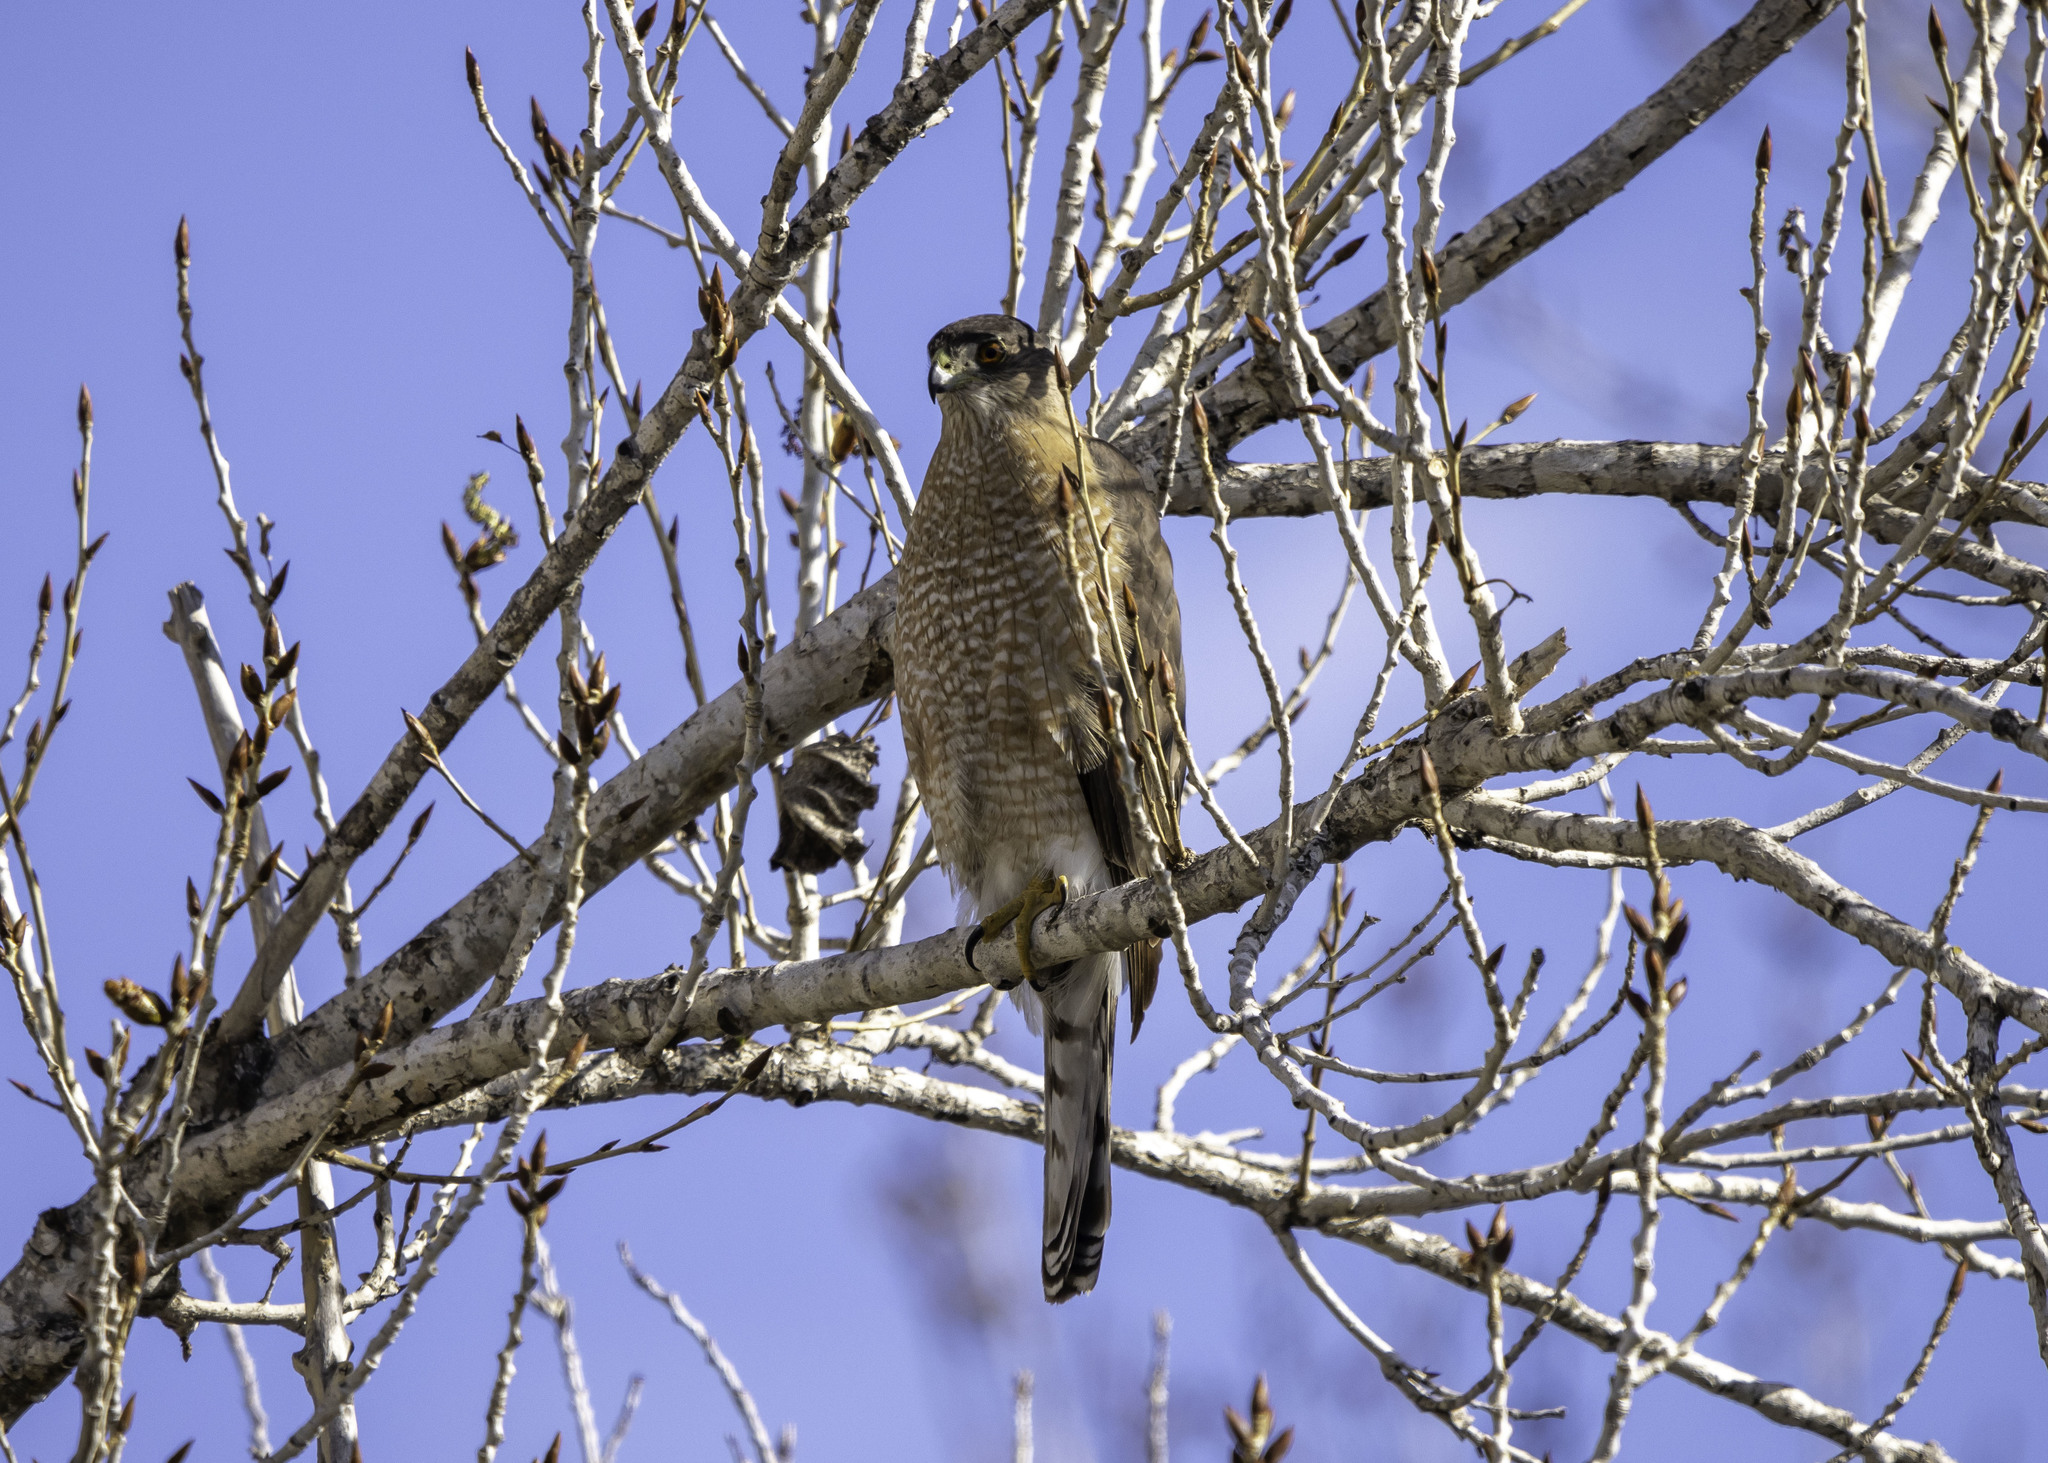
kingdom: Animalia
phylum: Chordata
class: Aves
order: Accipitriformes
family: Accipitridae
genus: Accipiter
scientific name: Accipiter cooperii
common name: Cooper's hawk
